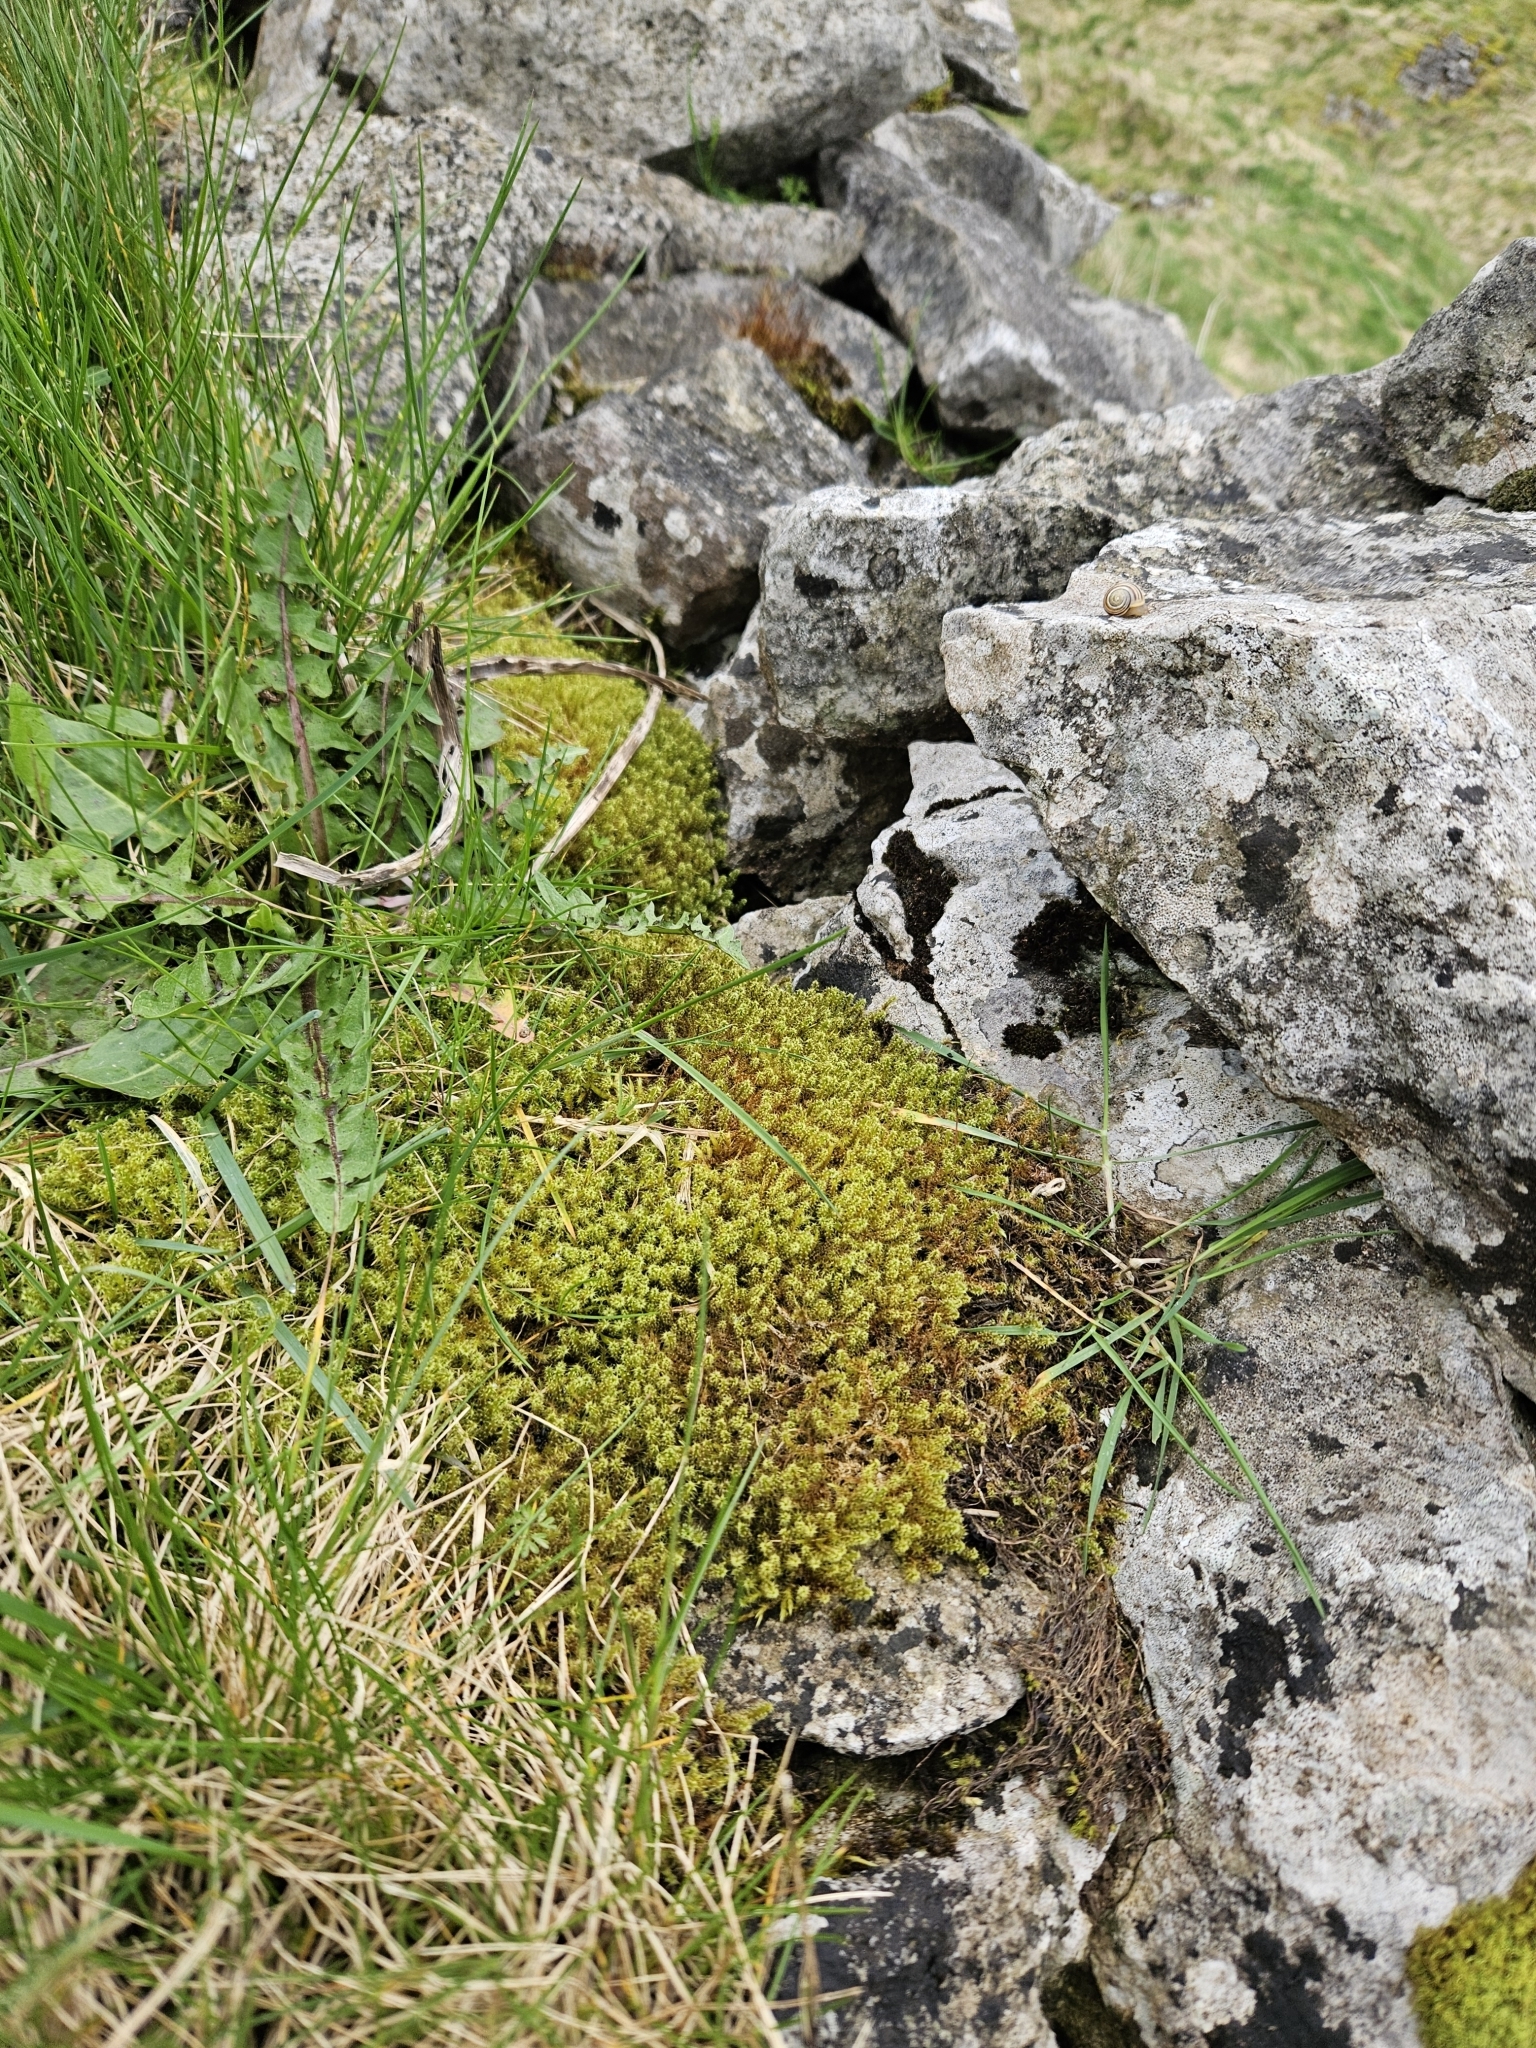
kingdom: Plantae
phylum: Bryophyta
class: Bryopsida
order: Hypnales
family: Hylocomiaceae
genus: Rhytidiadelphus
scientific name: Rhytidiadelphus squarrosus
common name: Springy turf-moss
